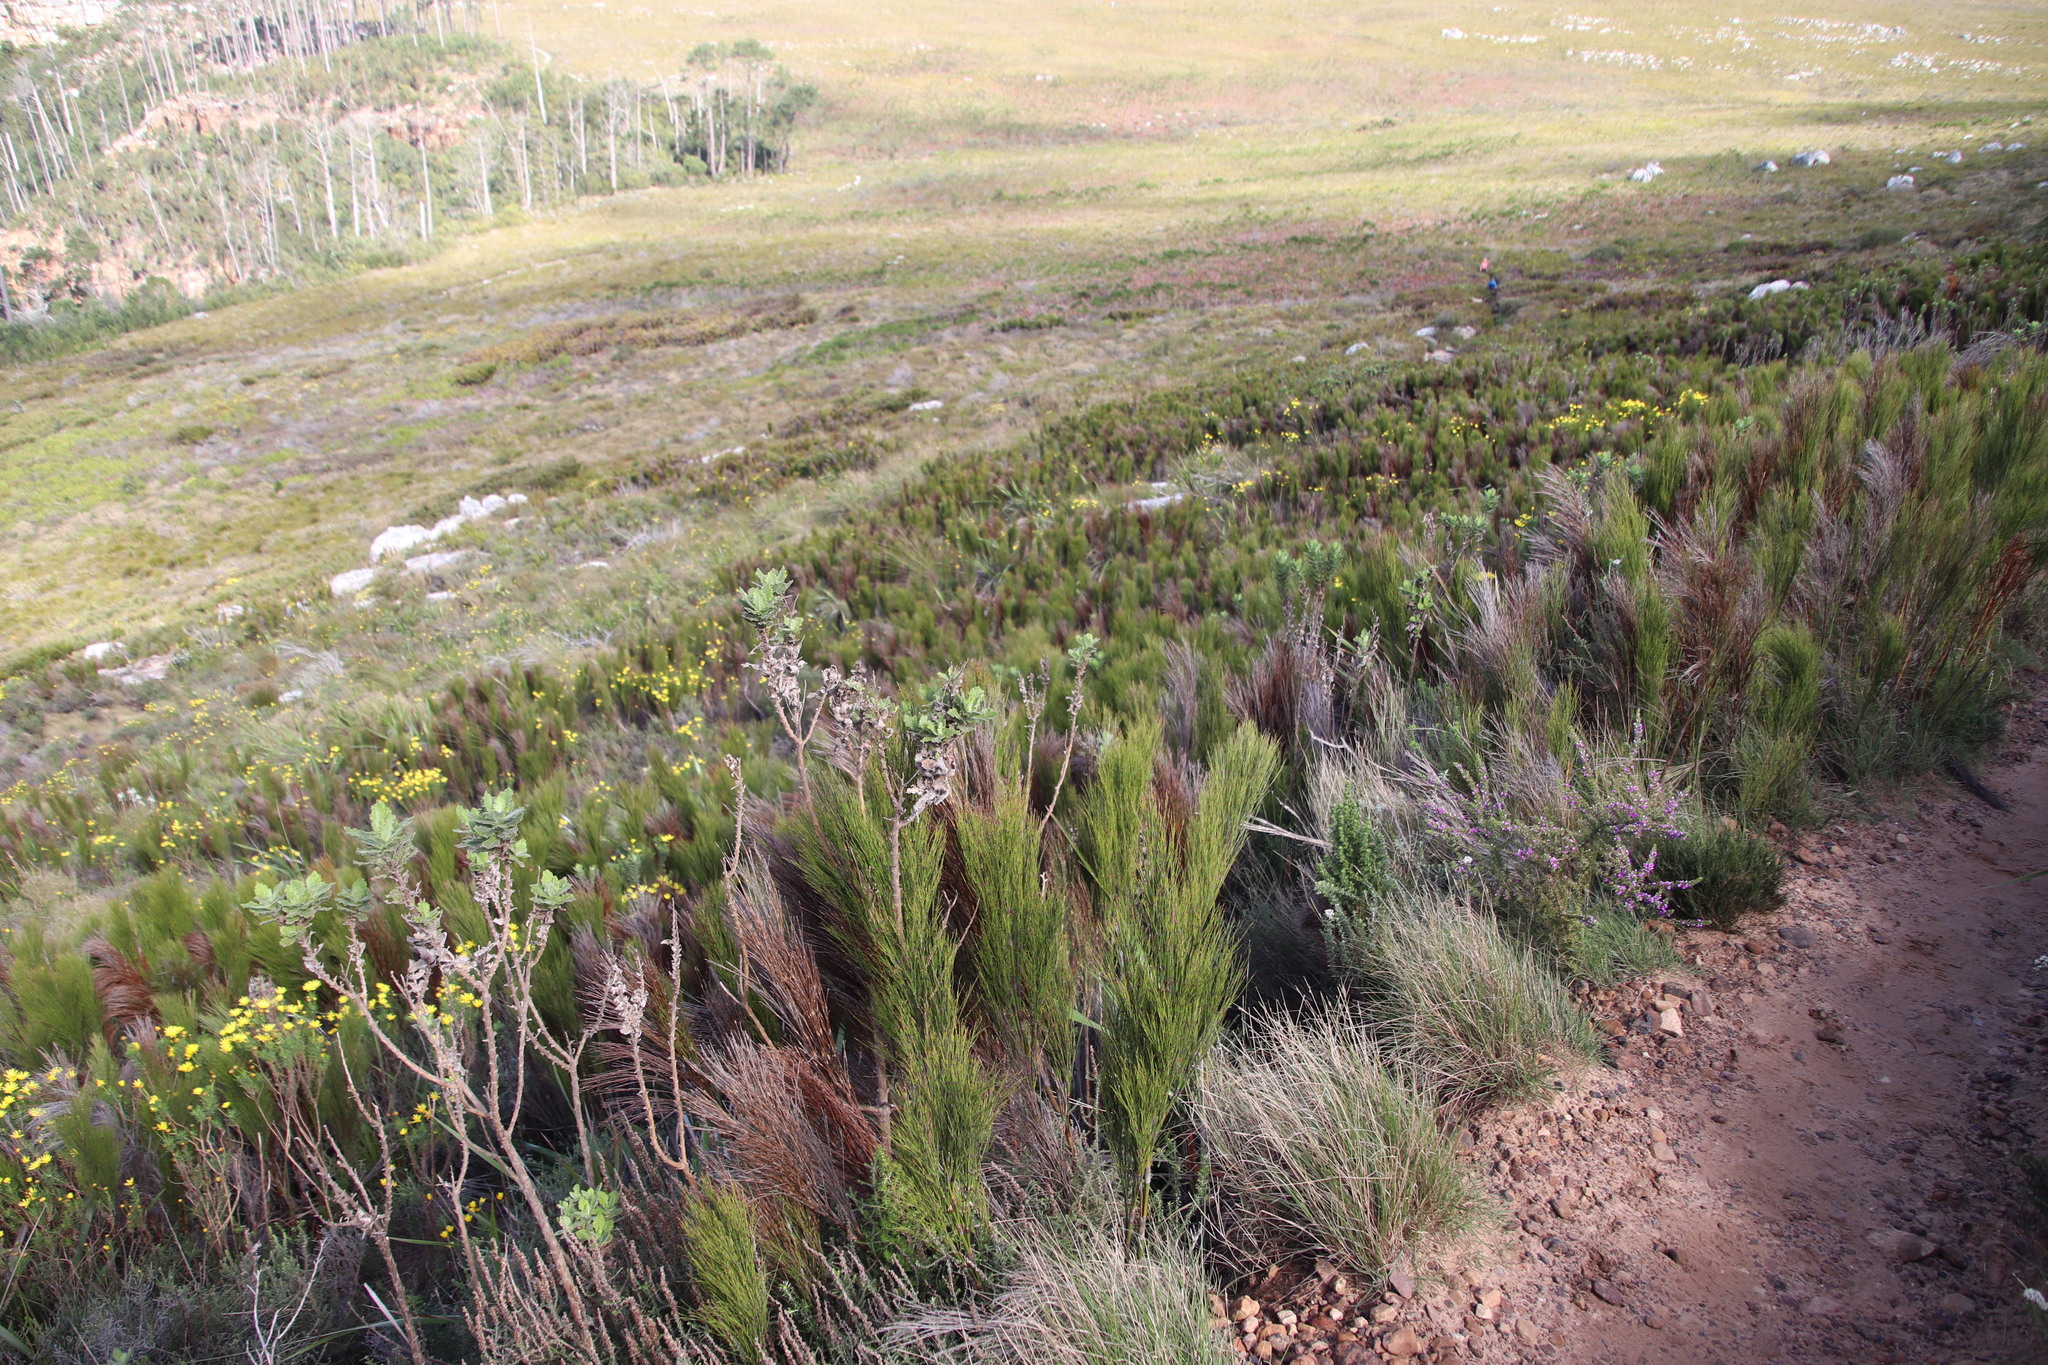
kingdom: Plantae
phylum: Tracheophyta
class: Liliopsida
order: Poales
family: Restionaceae
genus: Cannomois
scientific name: Cannomois virgata
